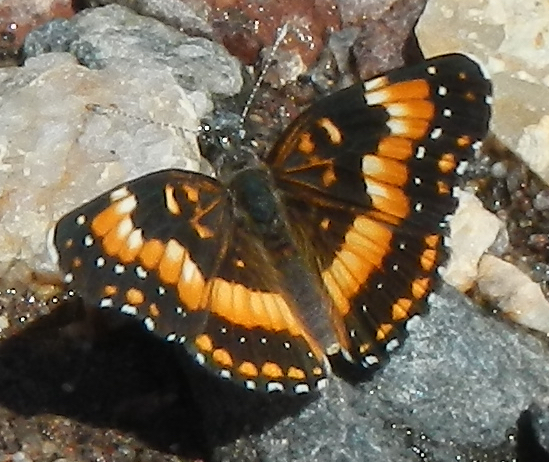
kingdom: Animalia
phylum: Arthropoda
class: Insecta
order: Lepidoptera
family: Nymphalidae
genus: Chlosyne
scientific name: Chlosyne californica
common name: California patch
